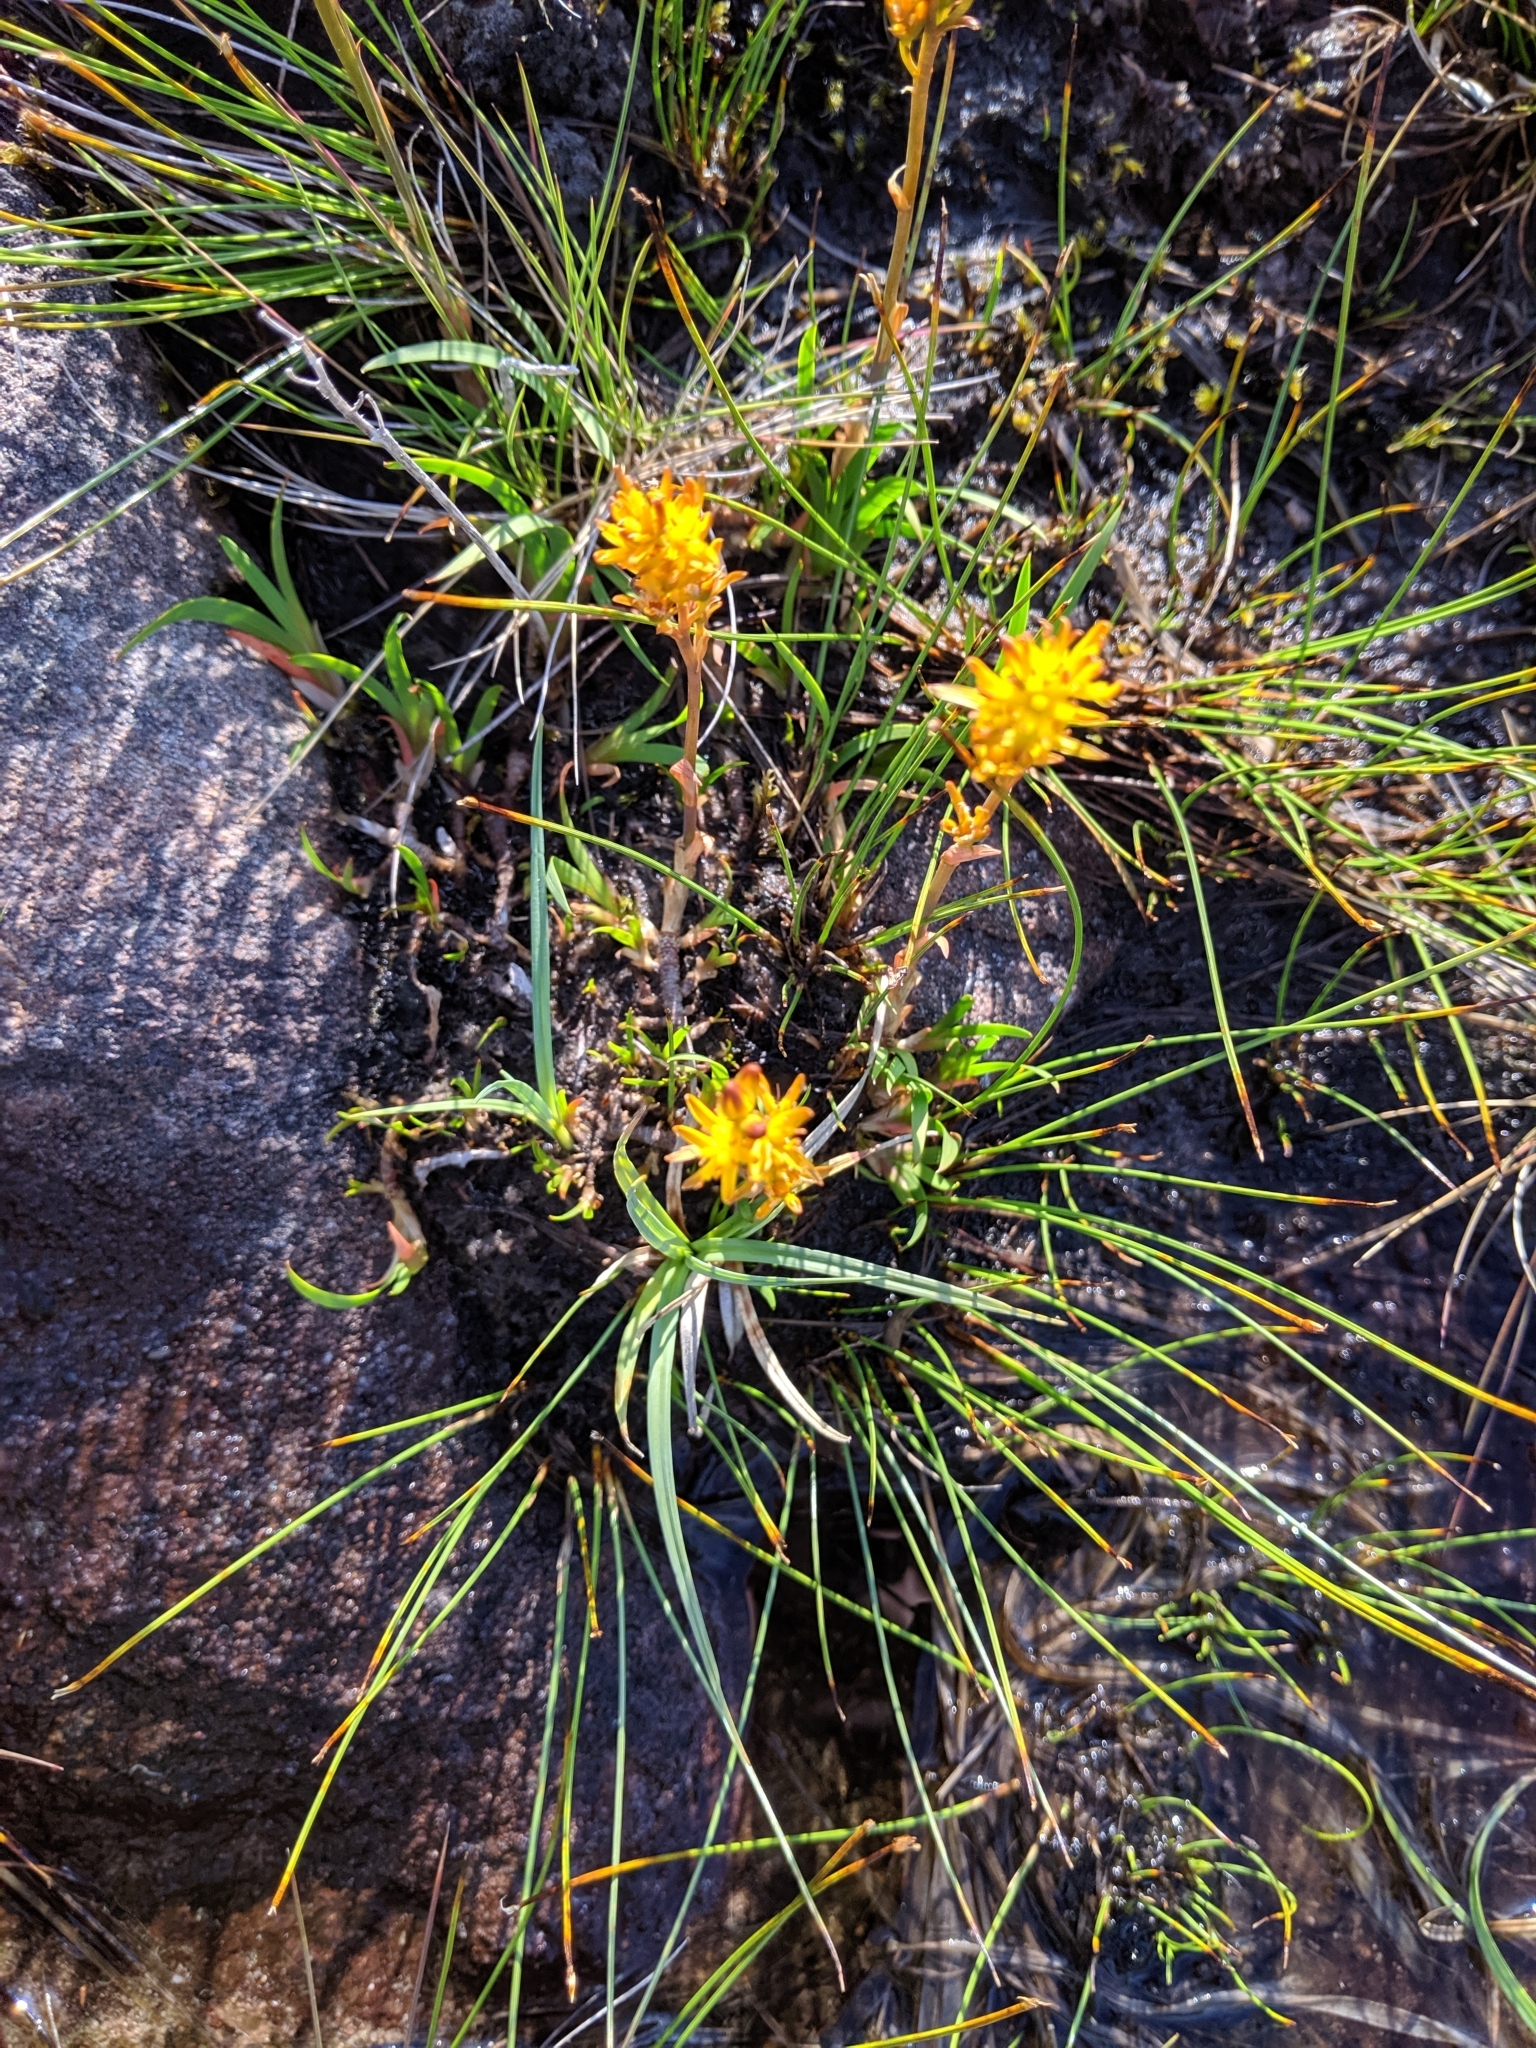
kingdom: Plantae
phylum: Tracheophyta
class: Liliopsida
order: Dioscoreales
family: Nartheciaceae
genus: Narthecium
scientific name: Narthecium ossifragum
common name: Bog asphodel
